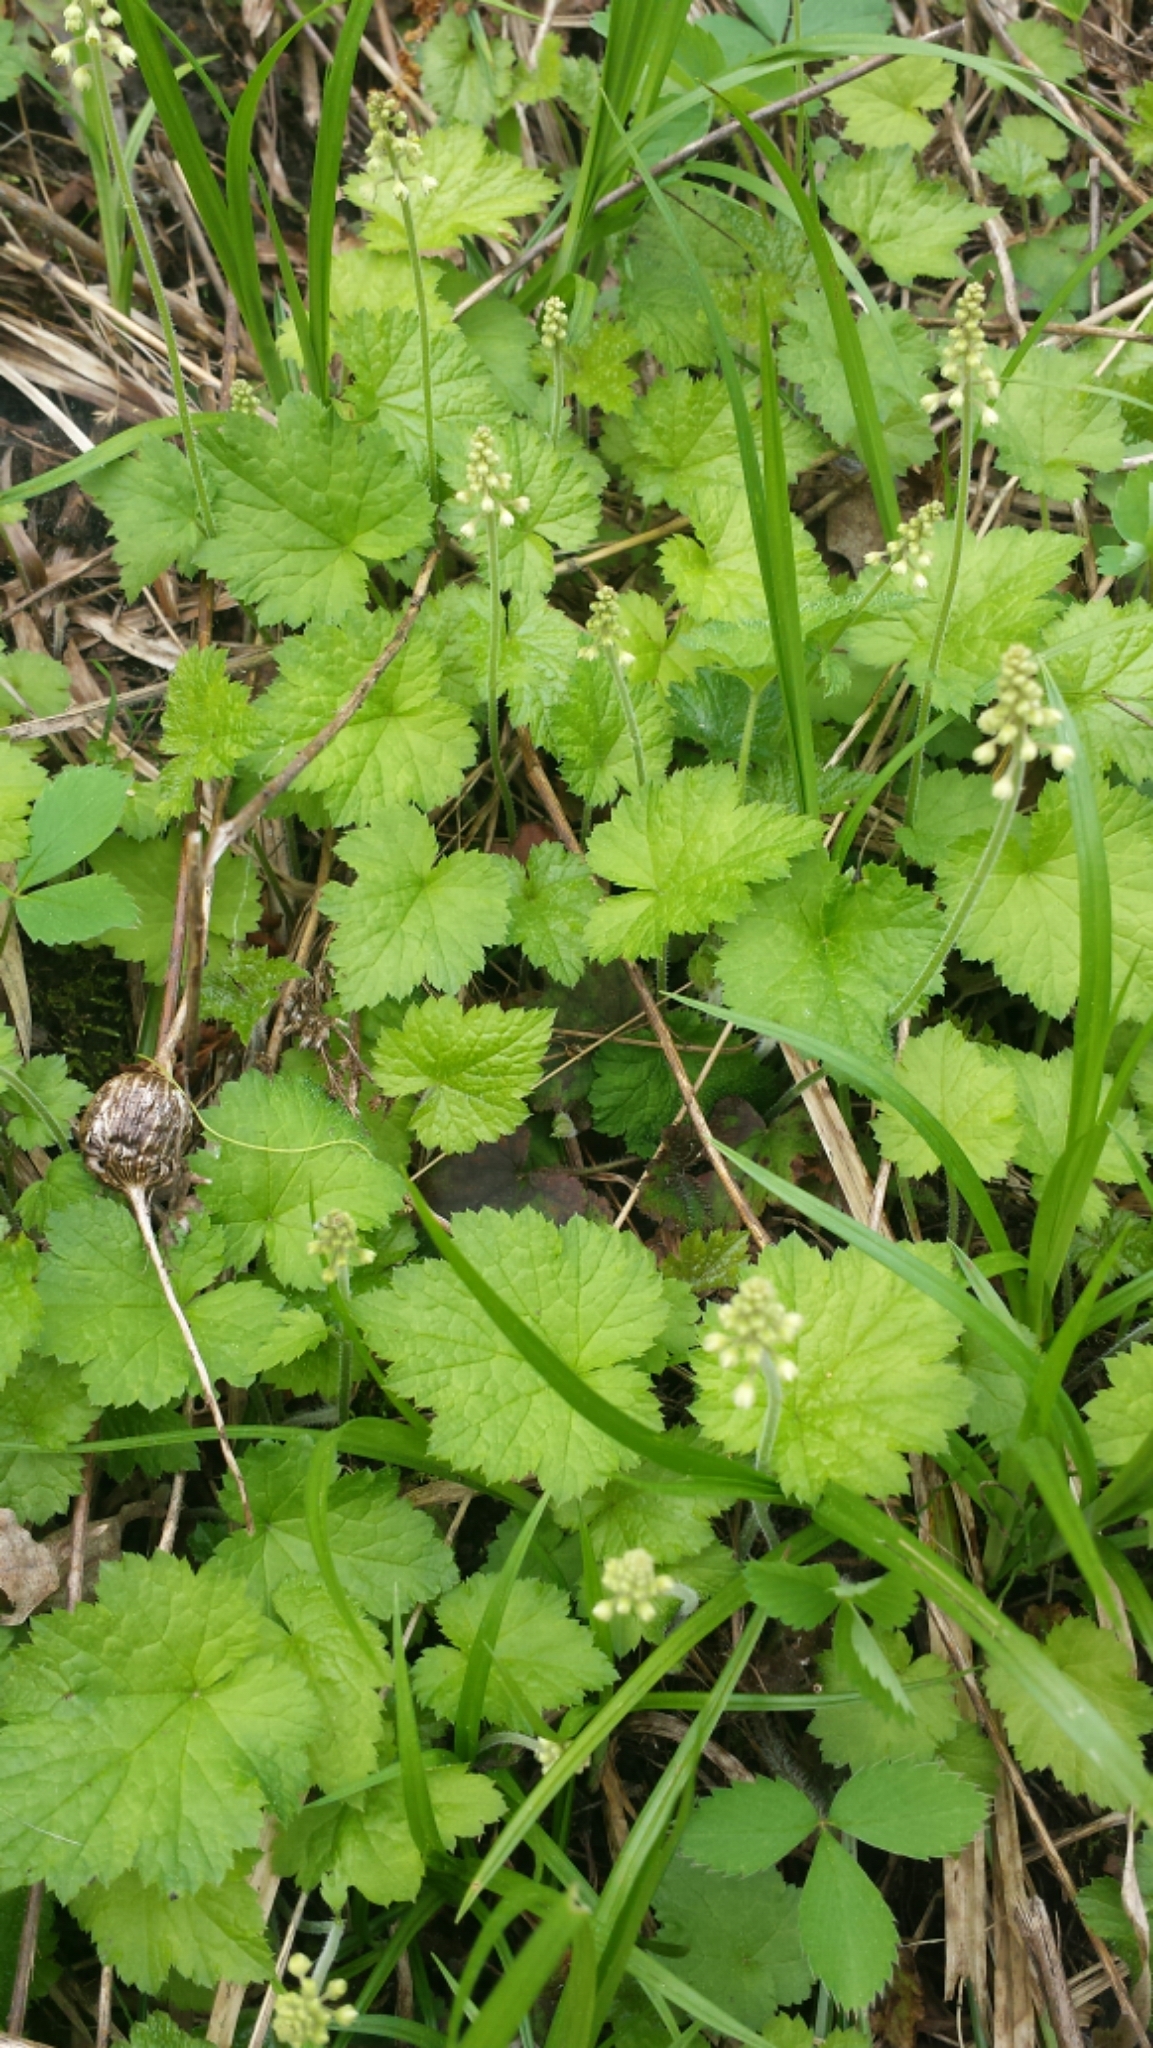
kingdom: Plantae
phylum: Tracheophyta
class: Magnoliopsida
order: Saxifragales
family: Saxifragaceae
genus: Tiarella
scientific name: Tiarella stolonifera
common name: Stoloniferous foamflower
